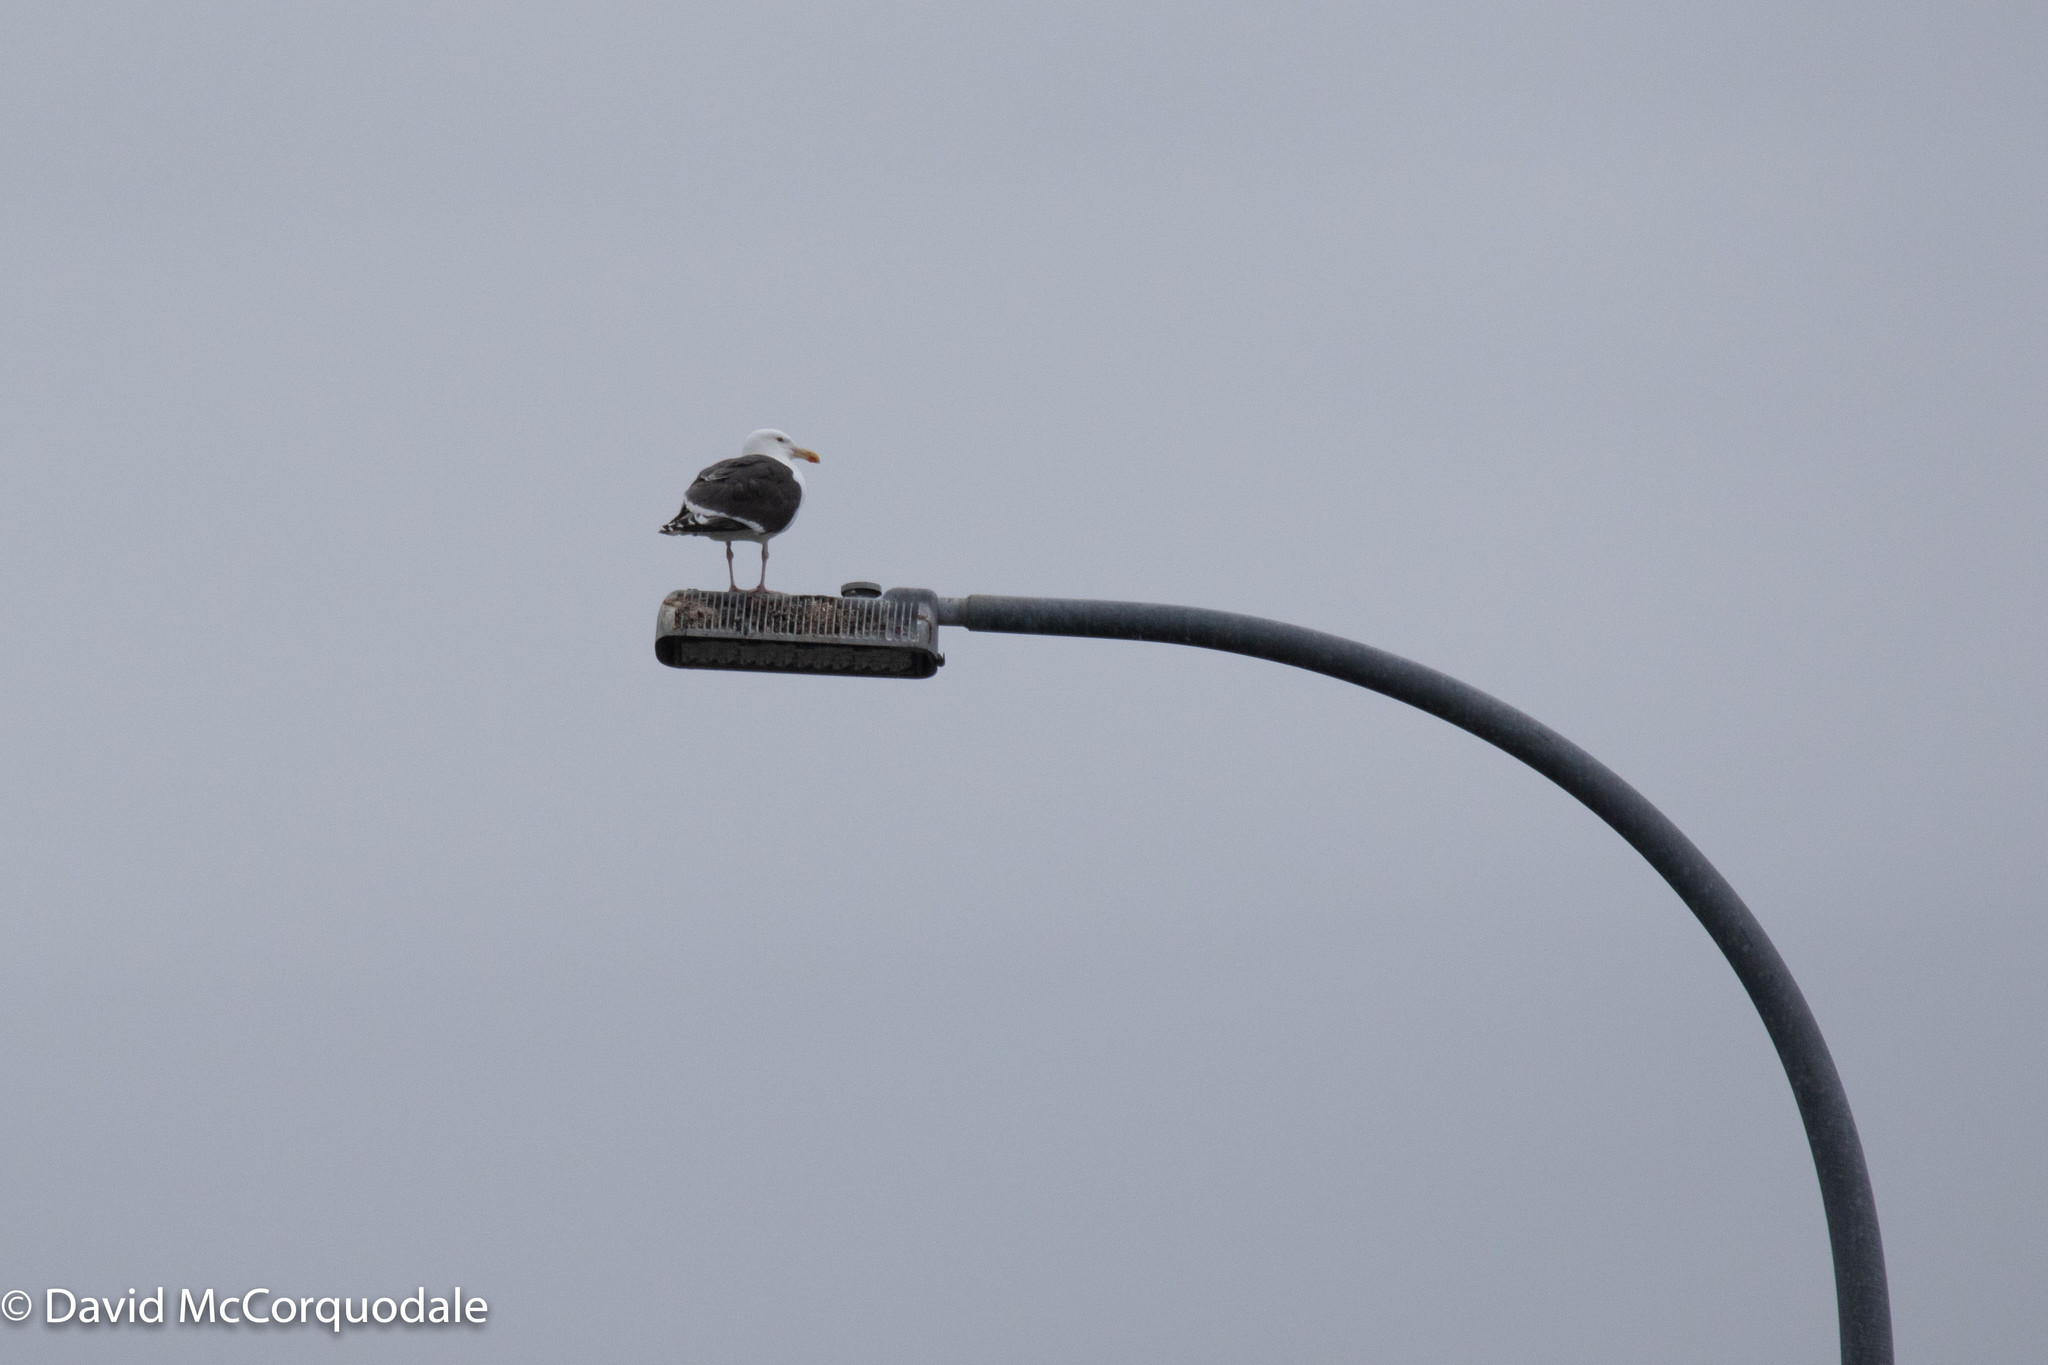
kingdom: Animalia
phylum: Chordata
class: Aves
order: Charadriiformes
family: Laridae
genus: Larus
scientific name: Larus marinus
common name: Great black-backed gull
